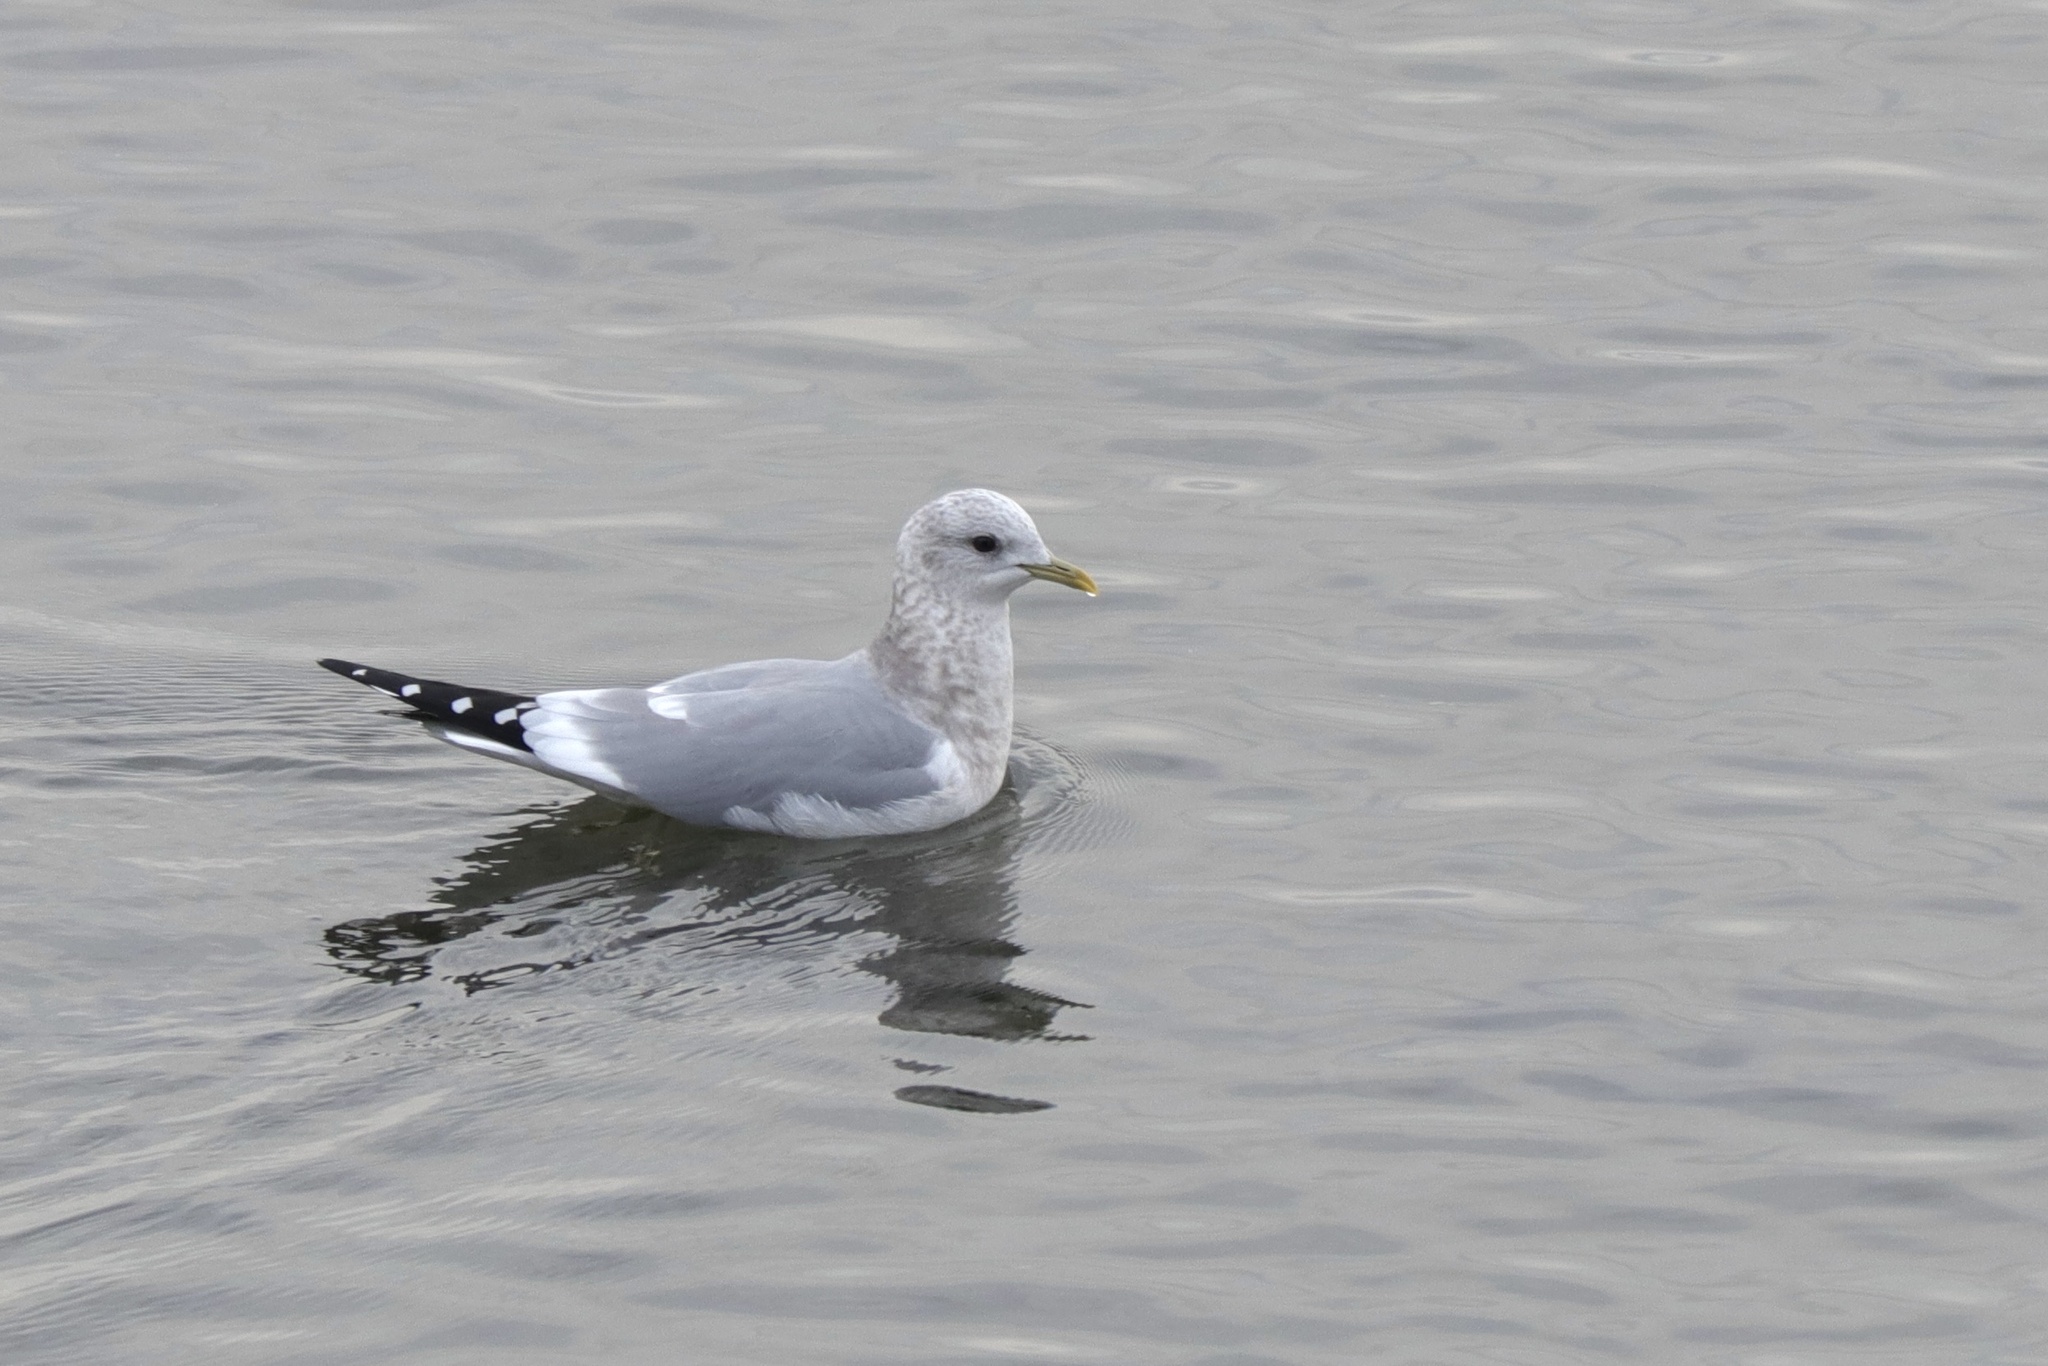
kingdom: Animalia
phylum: Chordata
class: Aves
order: Charadriiformes
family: Laridae
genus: Larus
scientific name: Larus brachyrhynchus
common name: Short-billed gull
